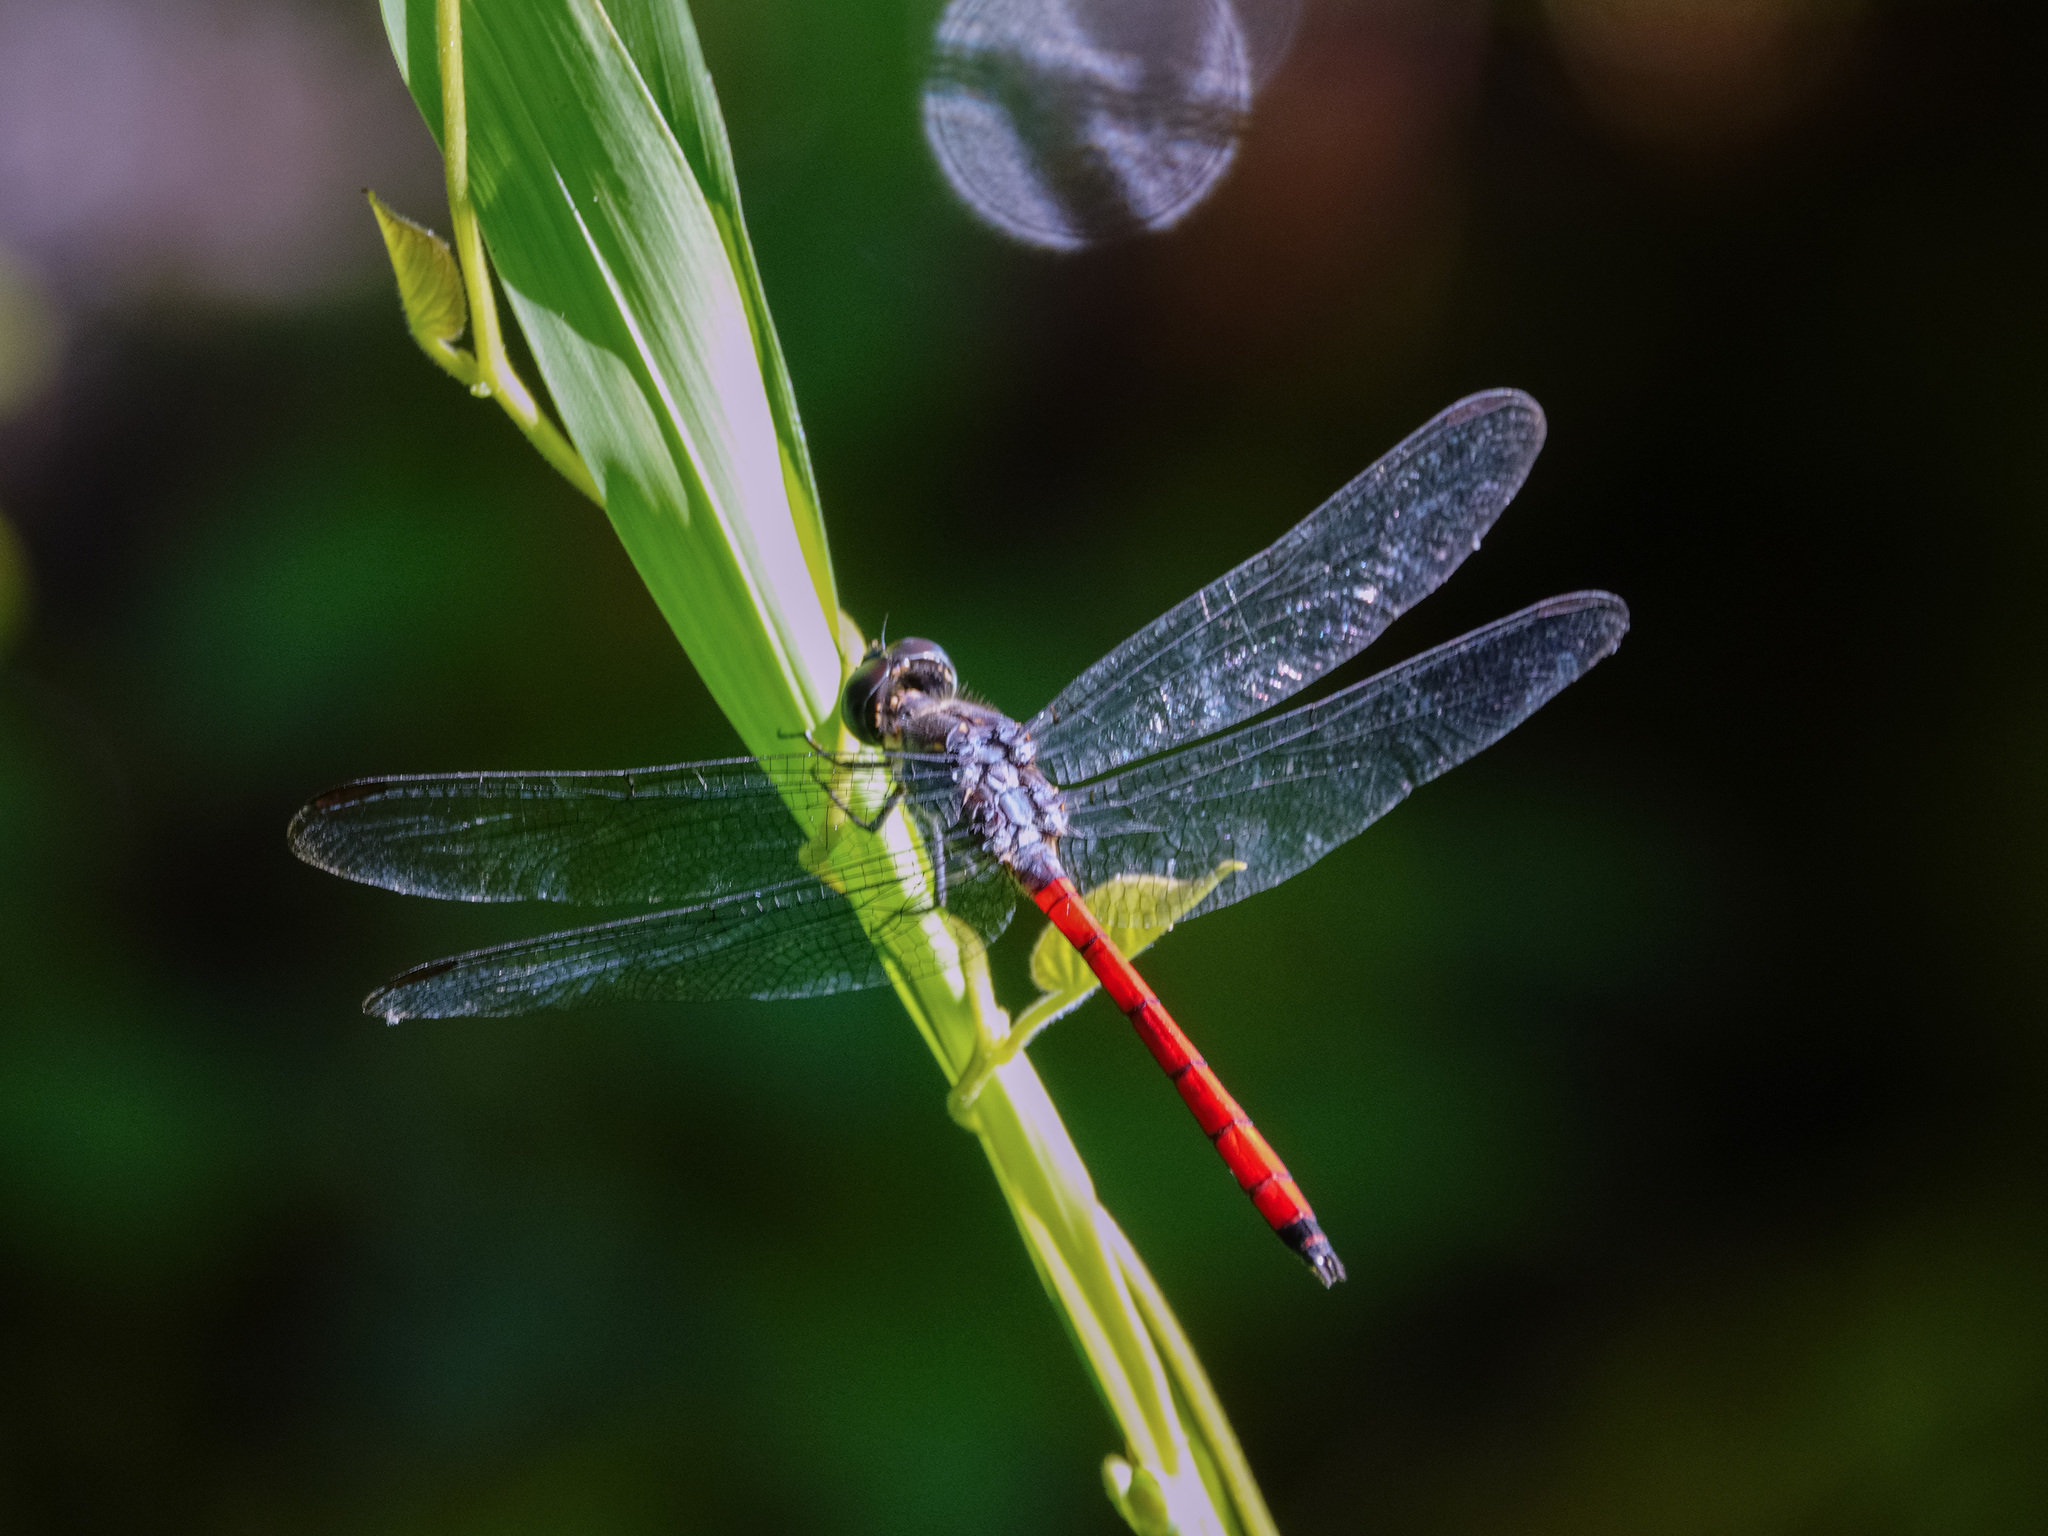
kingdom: Animalia
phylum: Arthropoda
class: Insecta
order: Odonata
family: Libellulidae
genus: Lathrecista
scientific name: Lathrecista asiatica
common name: Scarlet grenadier
